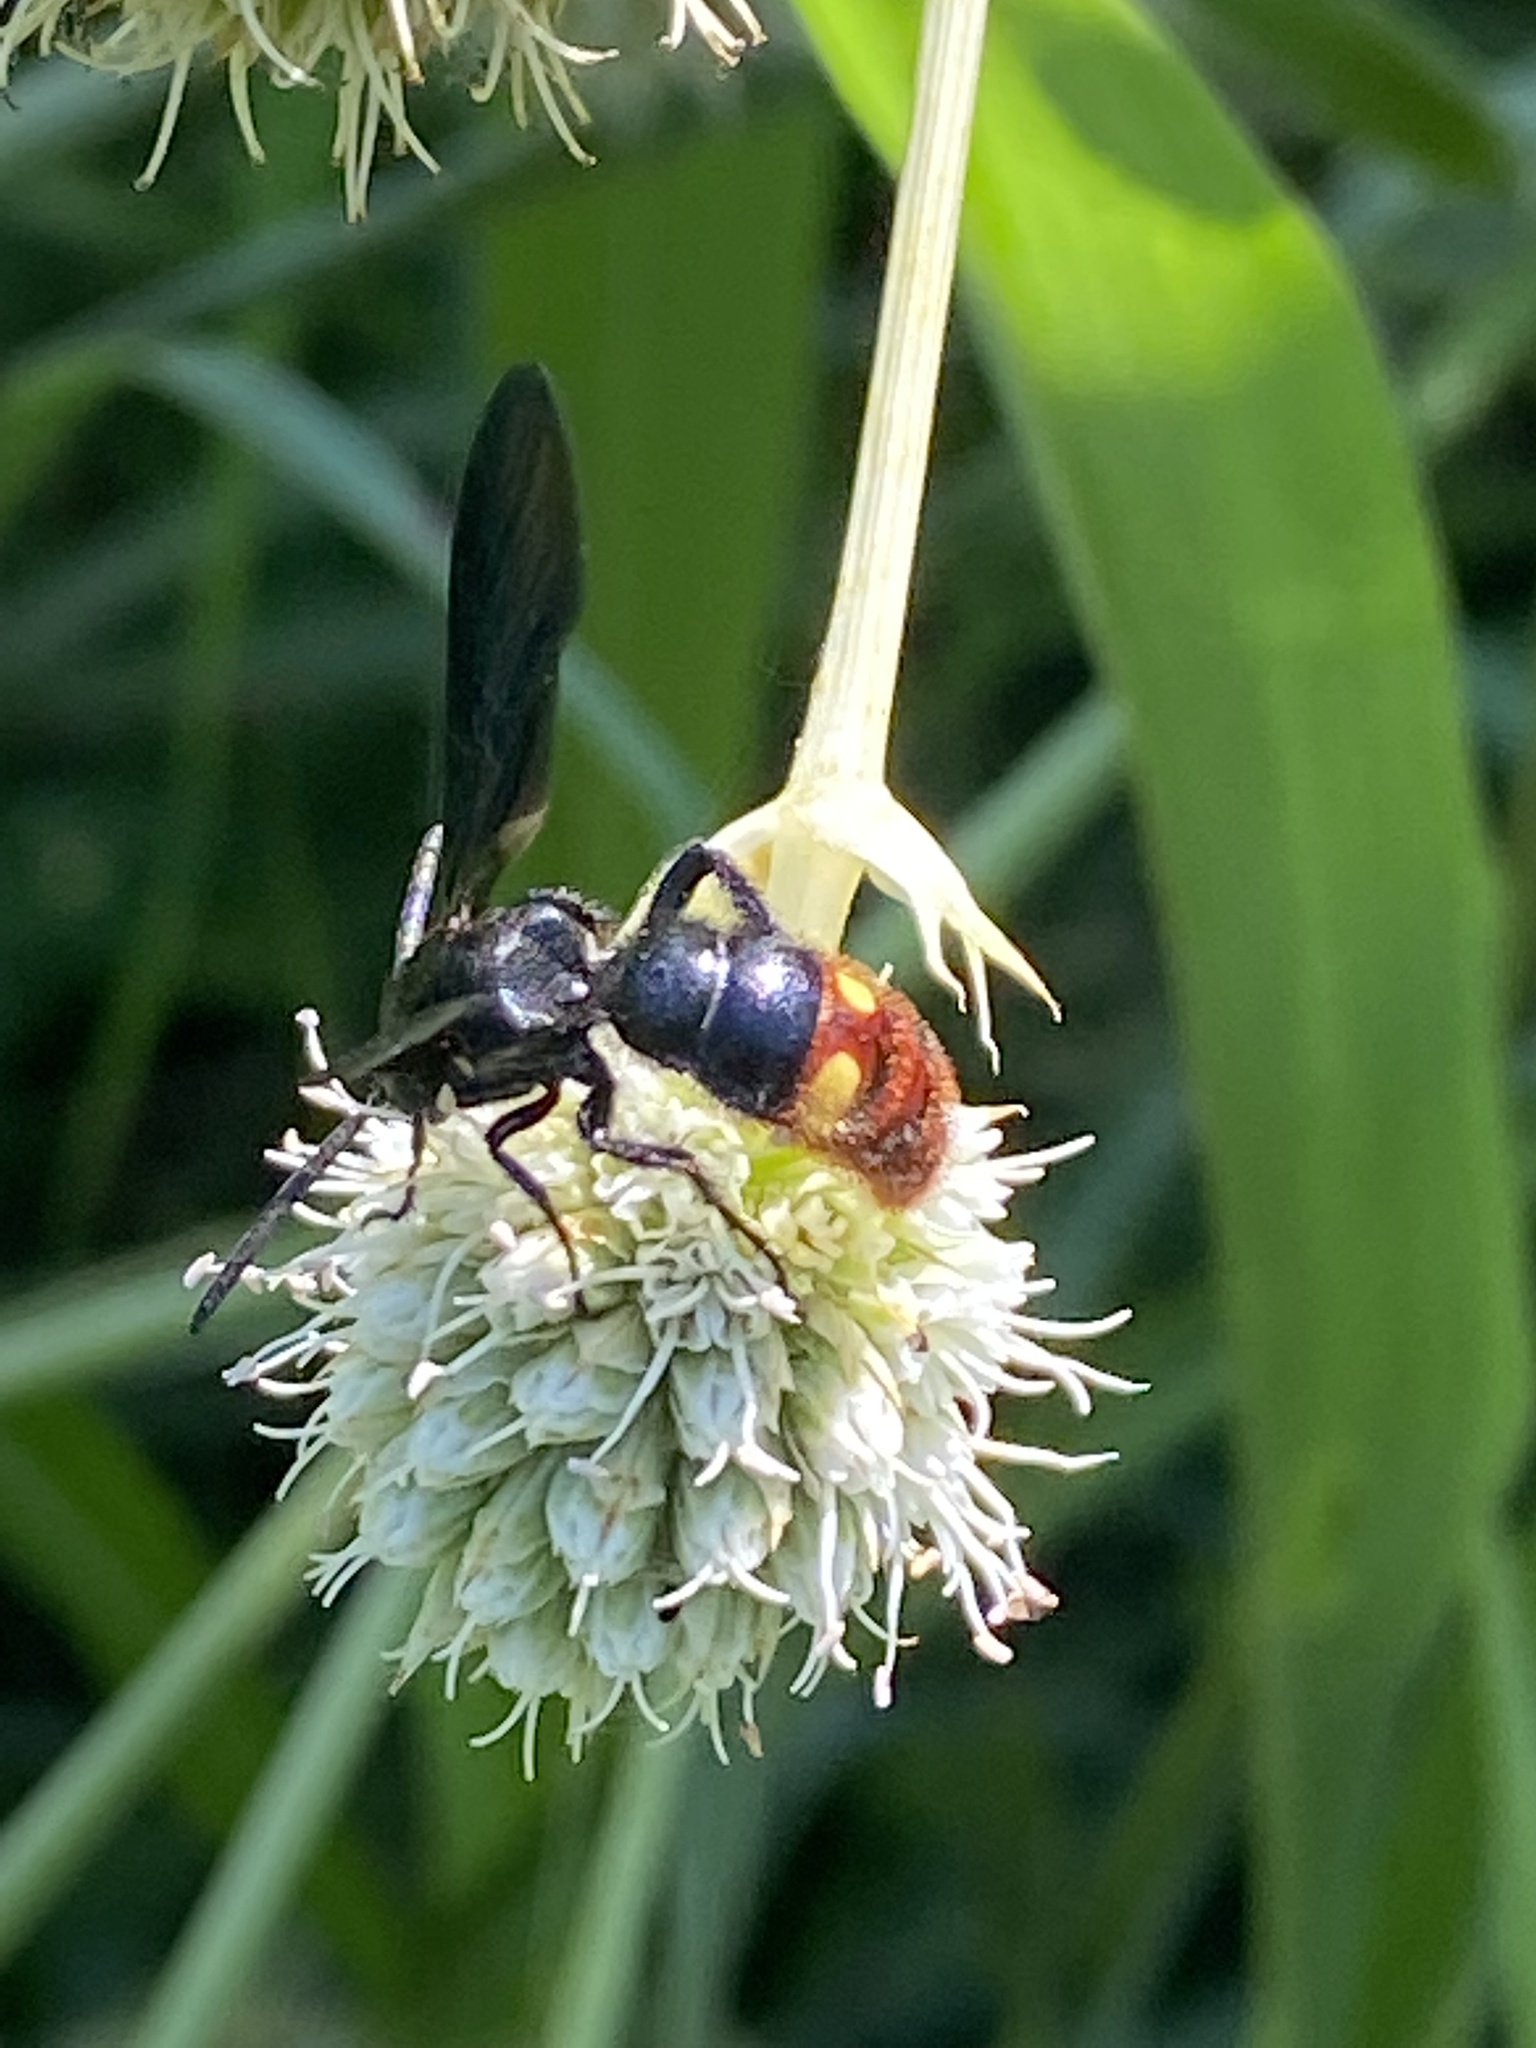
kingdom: Animalia
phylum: Arthropoda
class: Insecta
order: Hymenoptera
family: Scoliidae
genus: Scolia
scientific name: Scolia dubia
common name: Blue-winged scoliid wasp
